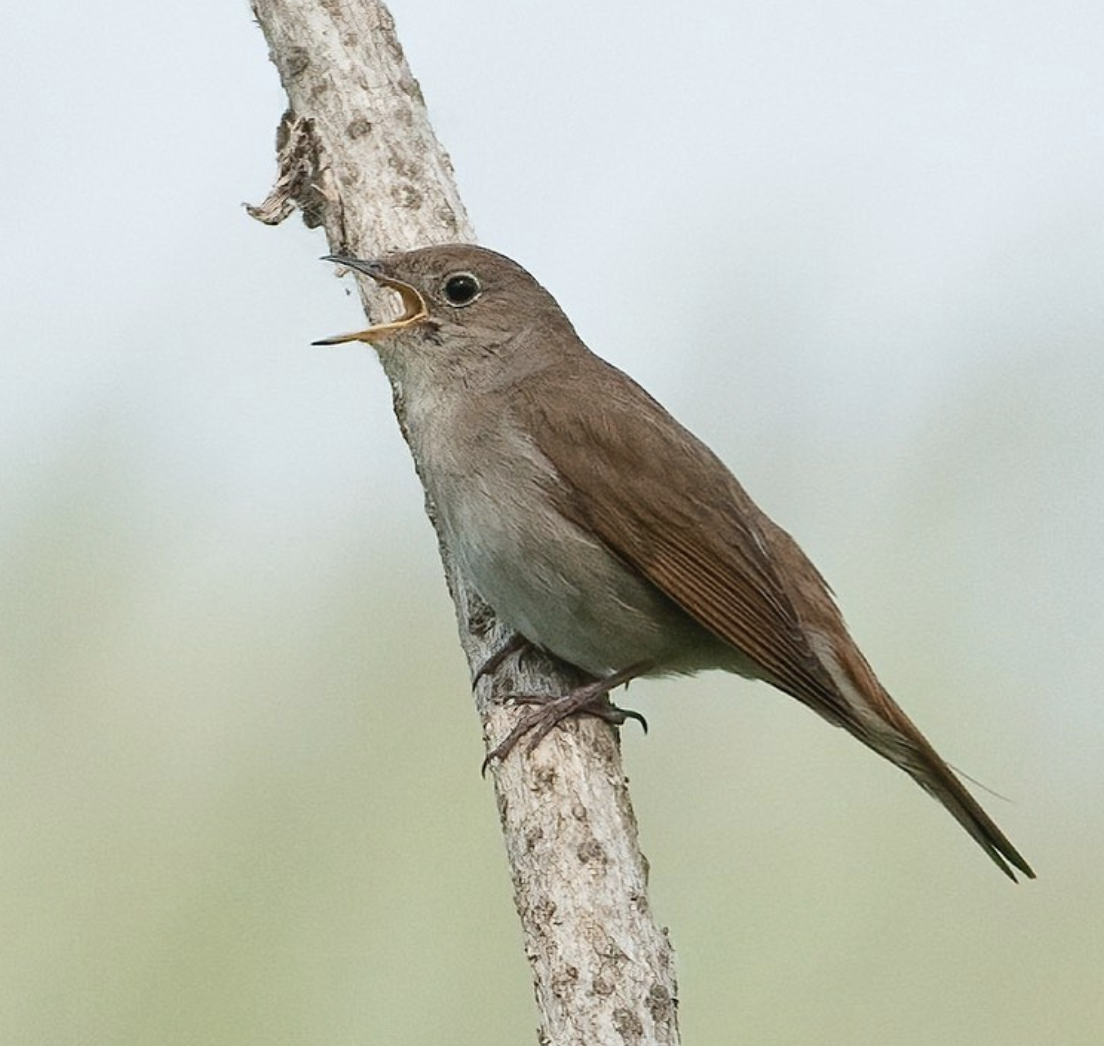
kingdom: Animalia
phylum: Chordata
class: Aves
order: Passeriformes
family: Muscicapidae
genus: Luscinia
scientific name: Luscinia megarhynchos
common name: Common nightingale
